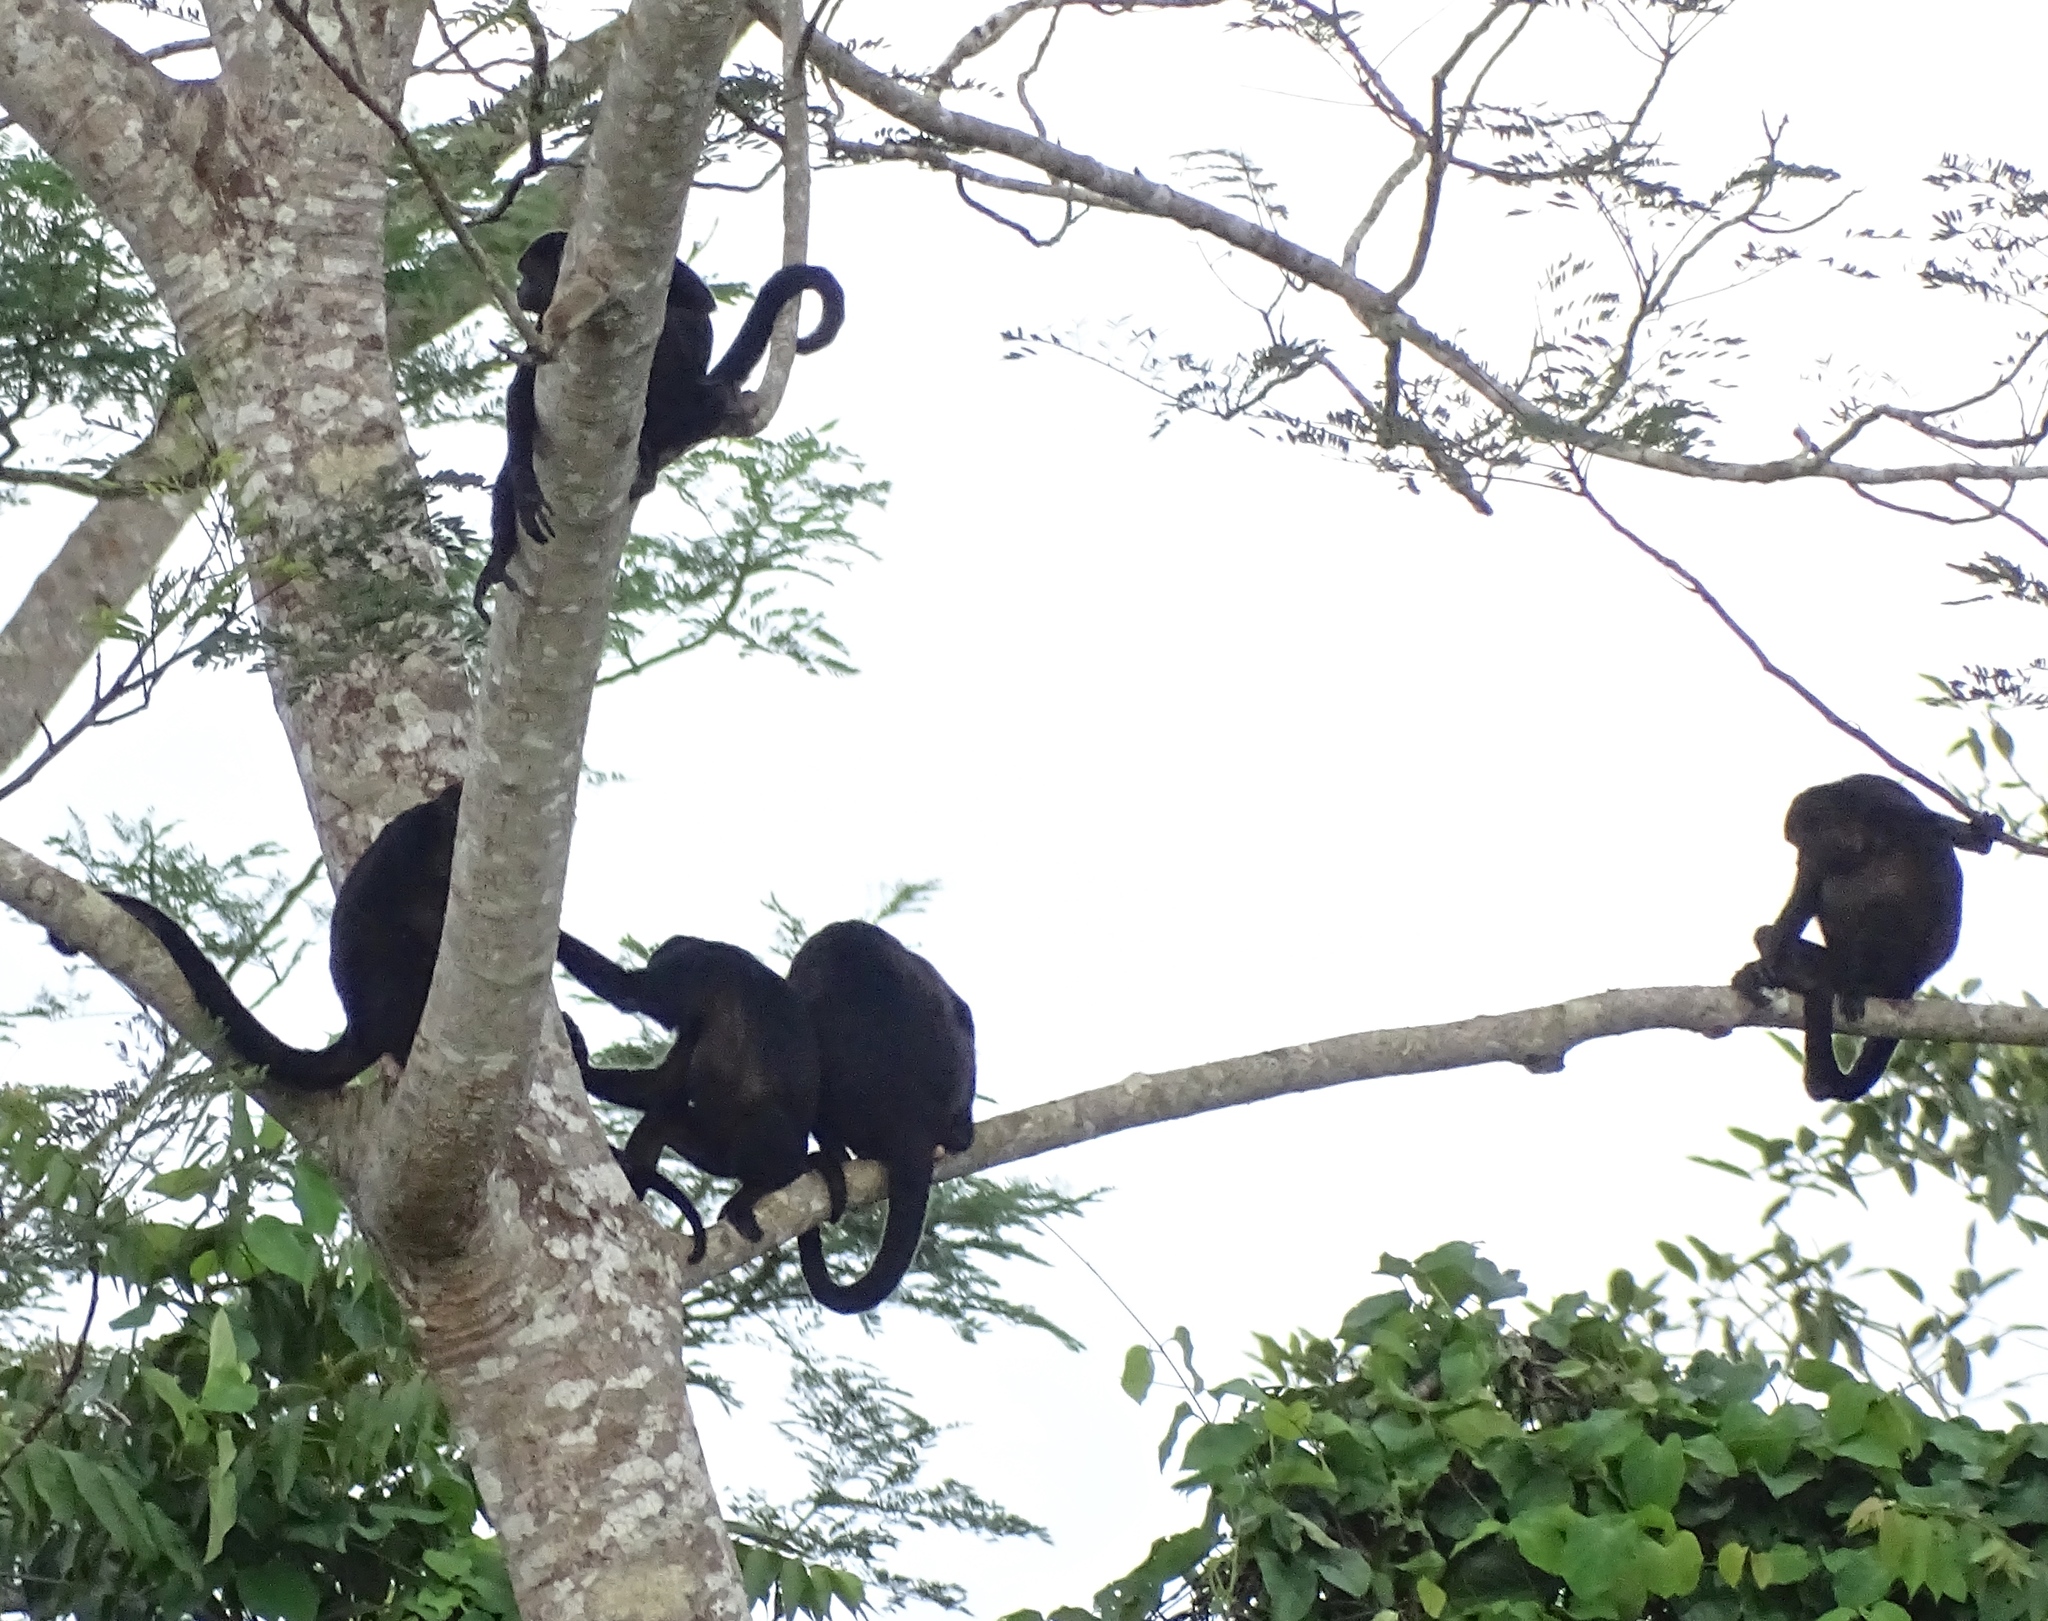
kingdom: Animalia
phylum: Chordata
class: Mammalia
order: Primates
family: Atelidae
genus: Alouatta
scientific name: Alouatta palliata
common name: Mantled howler
